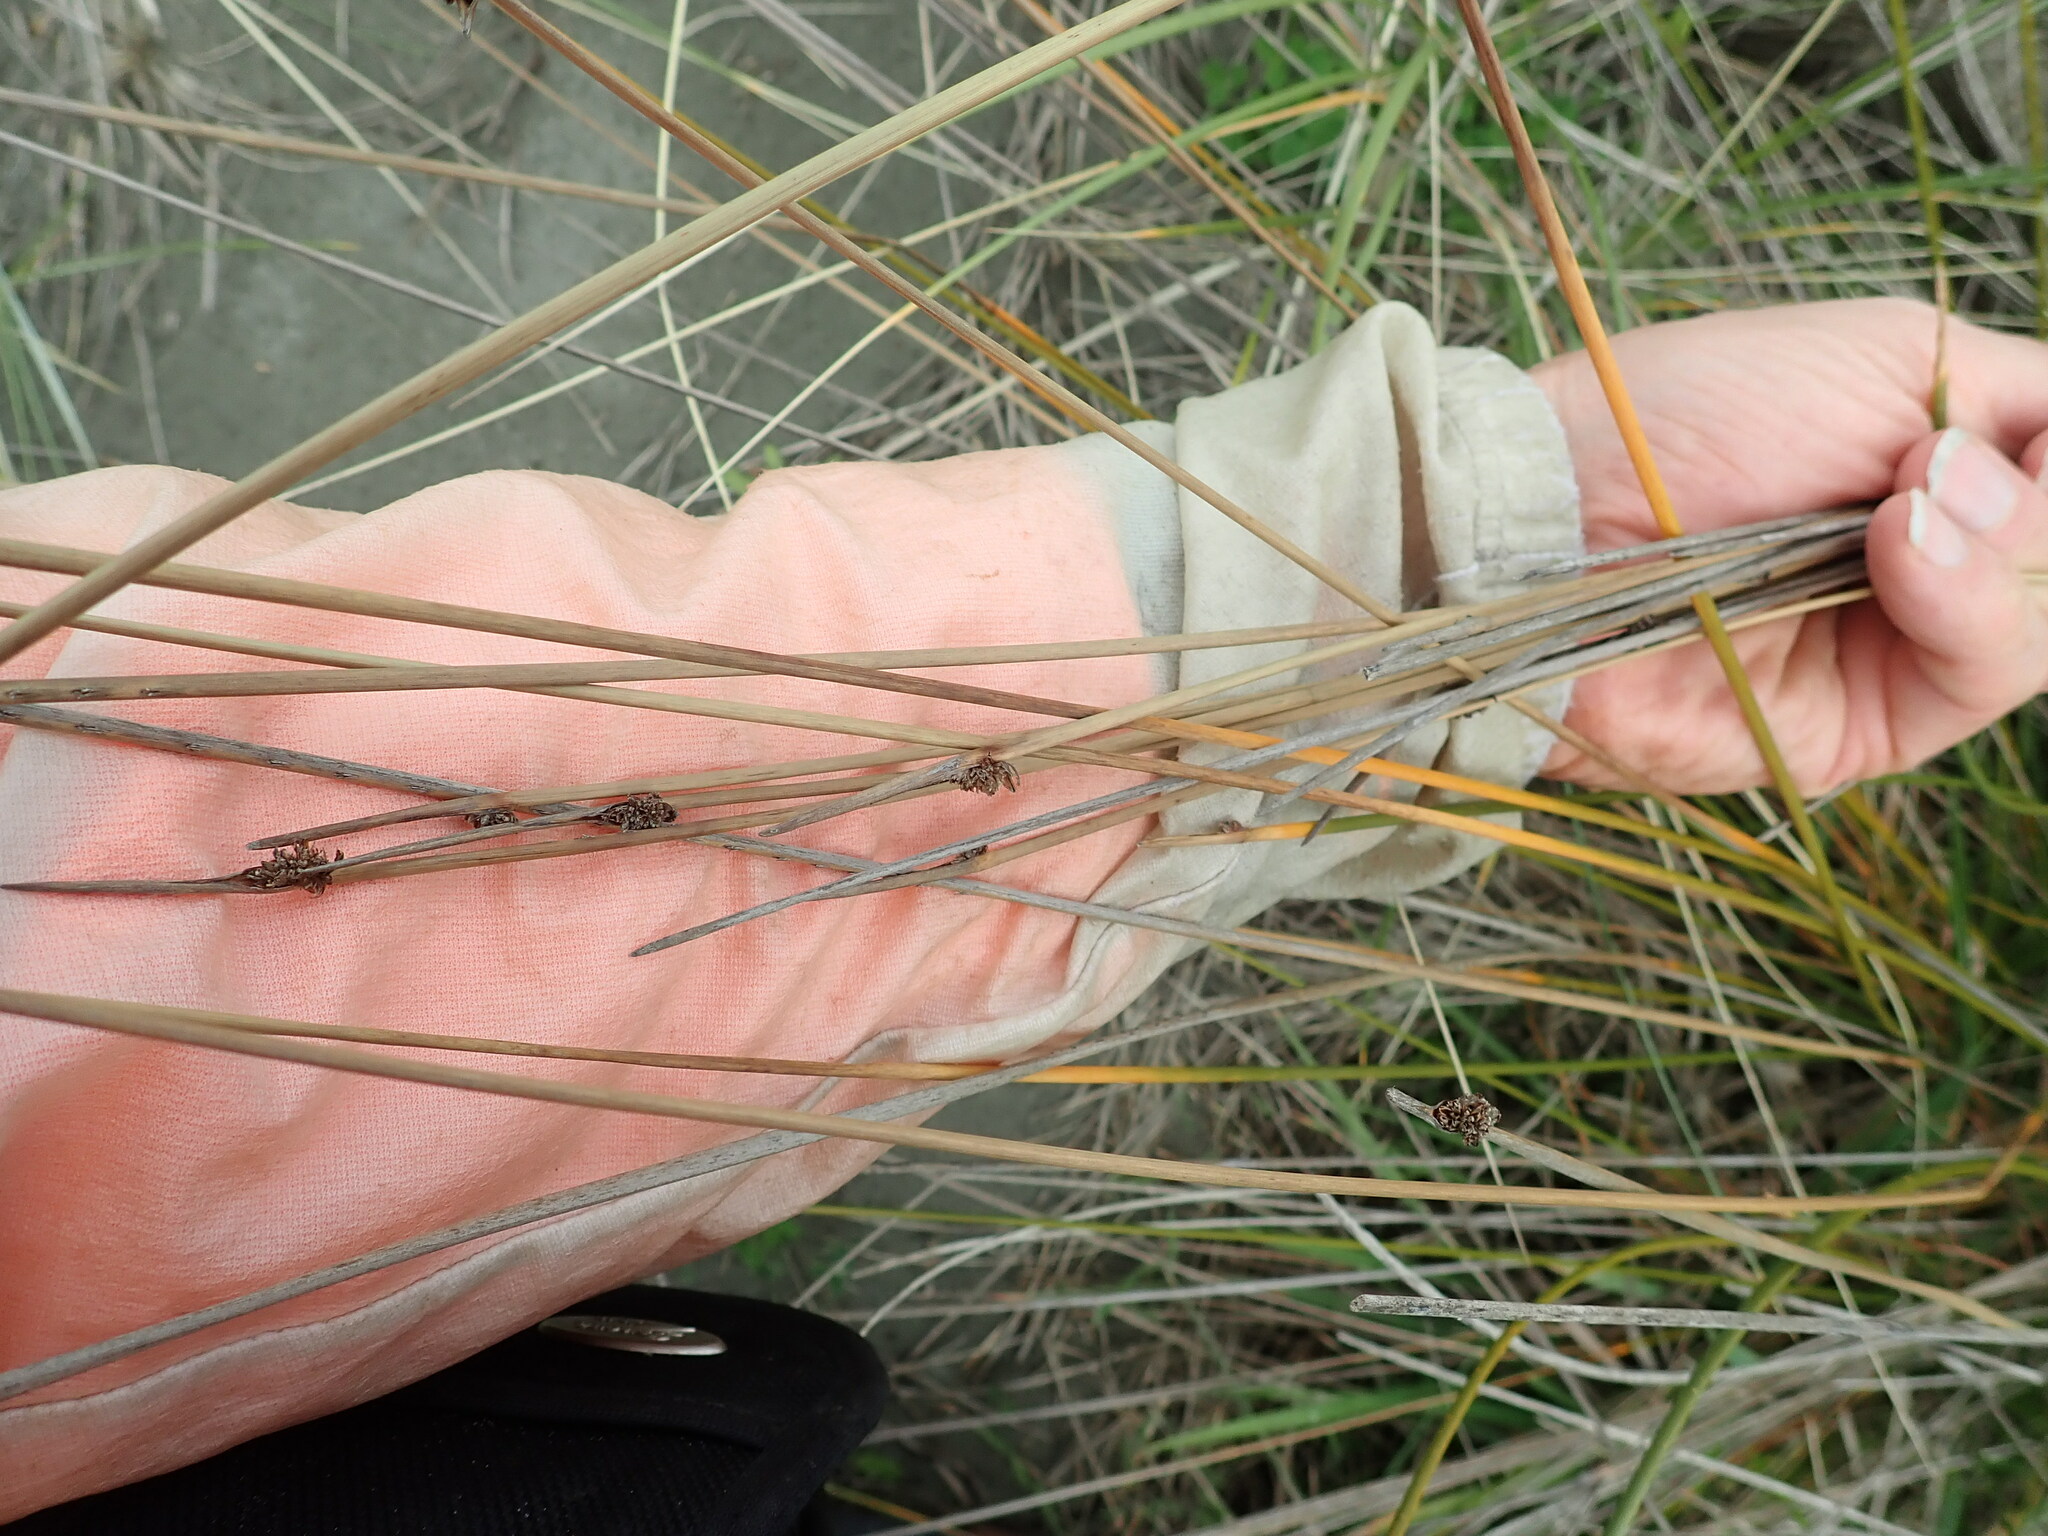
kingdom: Plantae
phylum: Tracheophyta
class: Liliopsida
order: Poales
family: Cyperaceae
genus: Ficinia
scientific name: Ficinia nodosa
